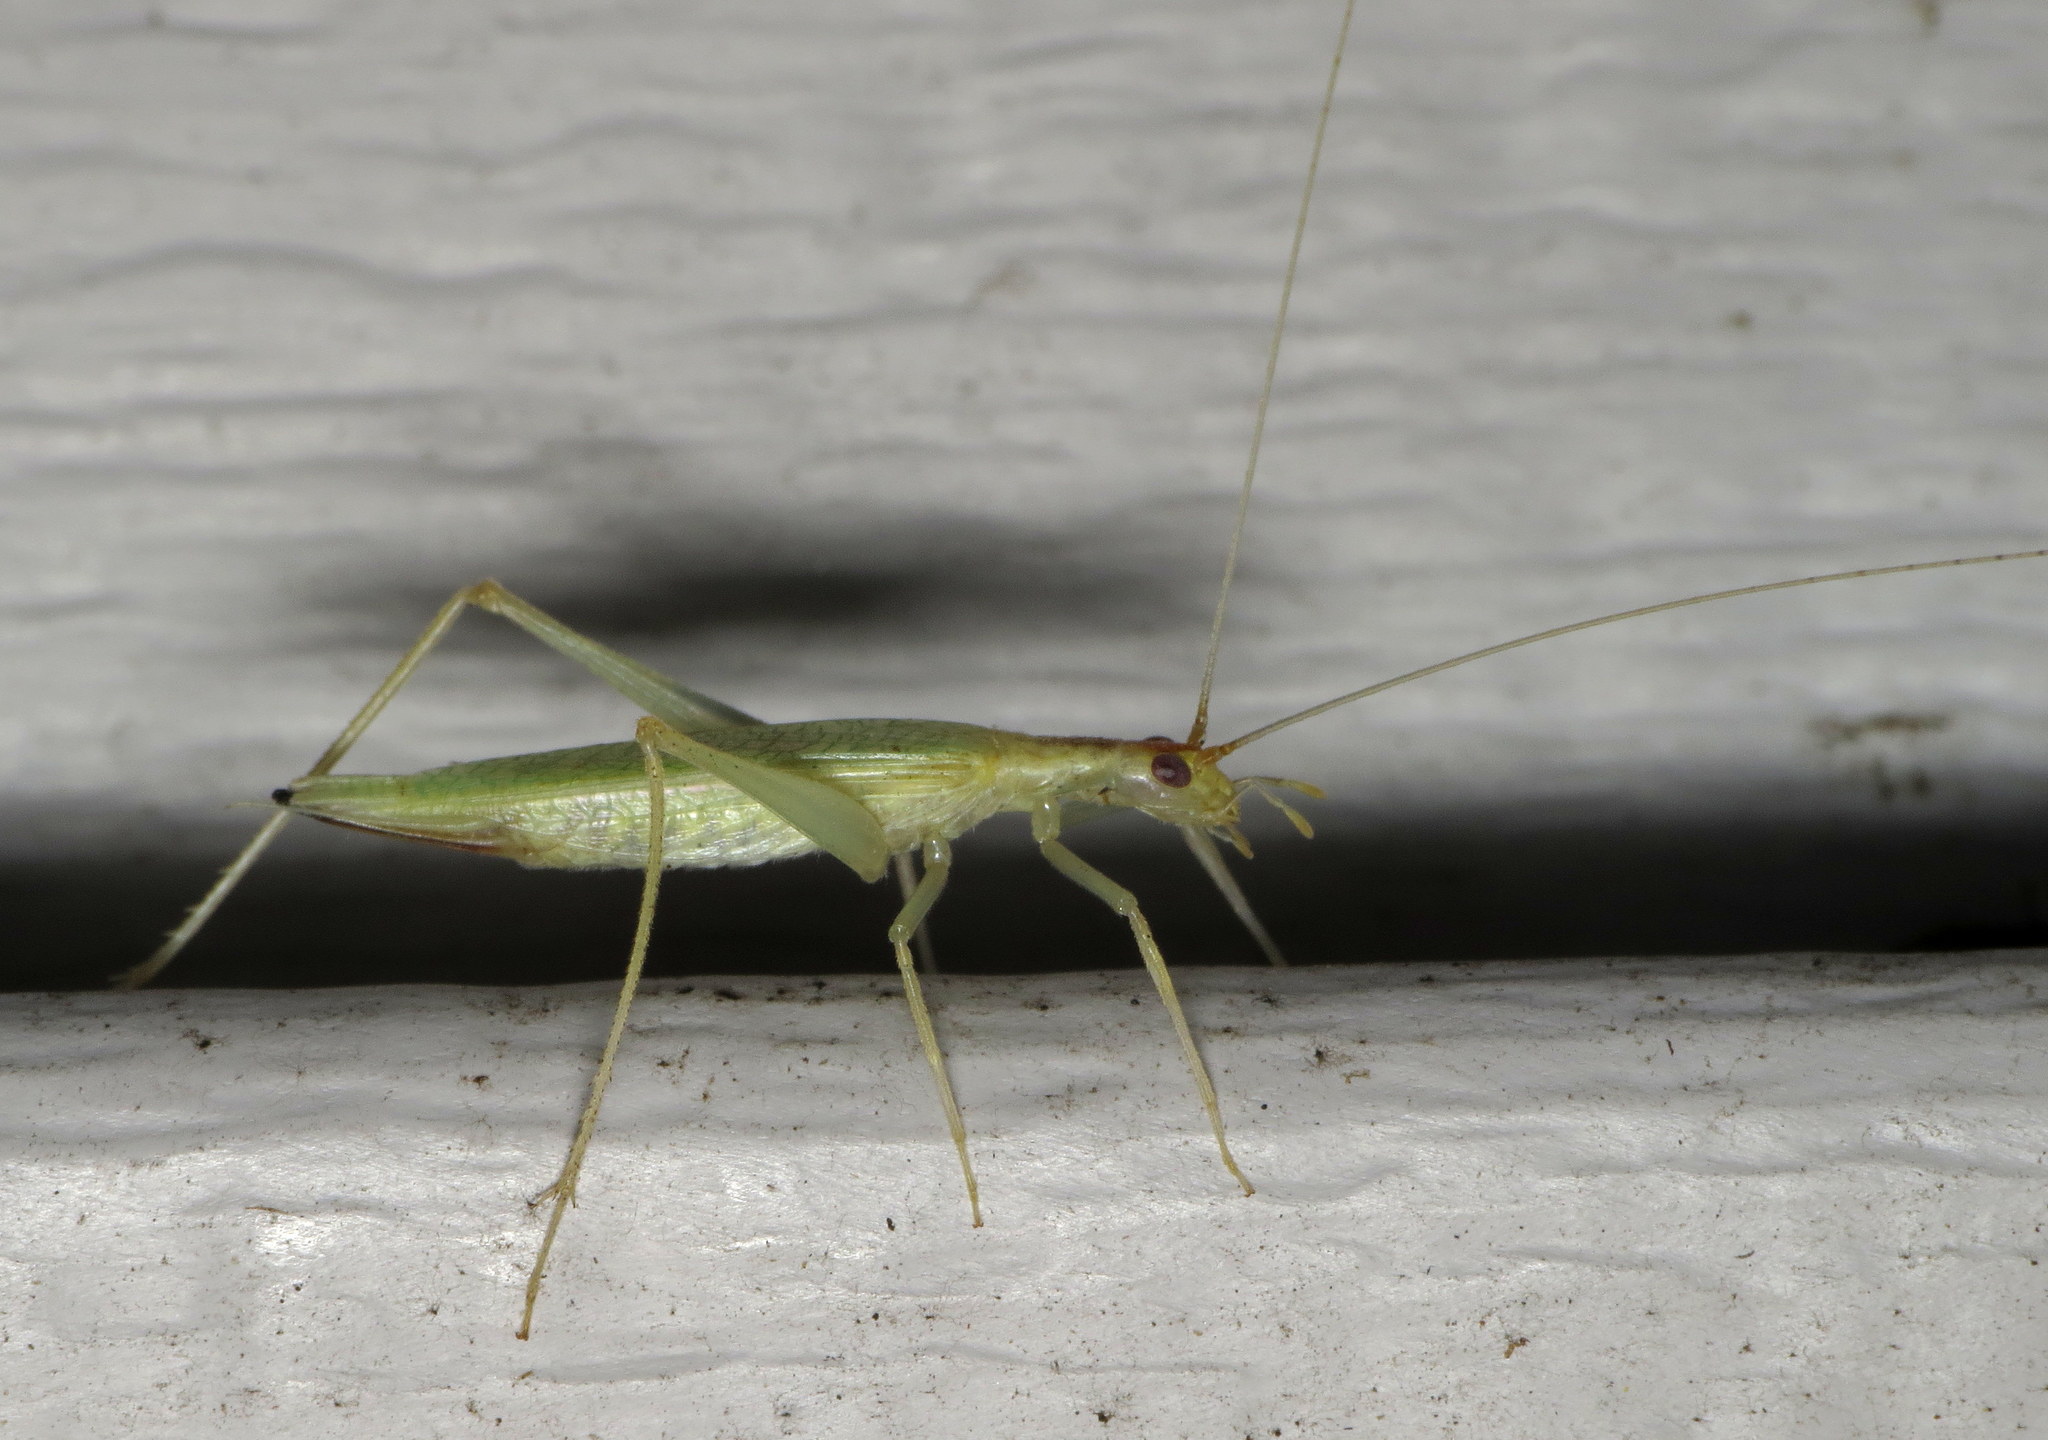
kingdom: Animalia
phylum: Arthropoda
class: Insecta
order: Orthoptera
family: Gryllidae
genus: Oecanthus
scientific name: Oecanthus niveus
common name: Narrow-winged tree cricket
